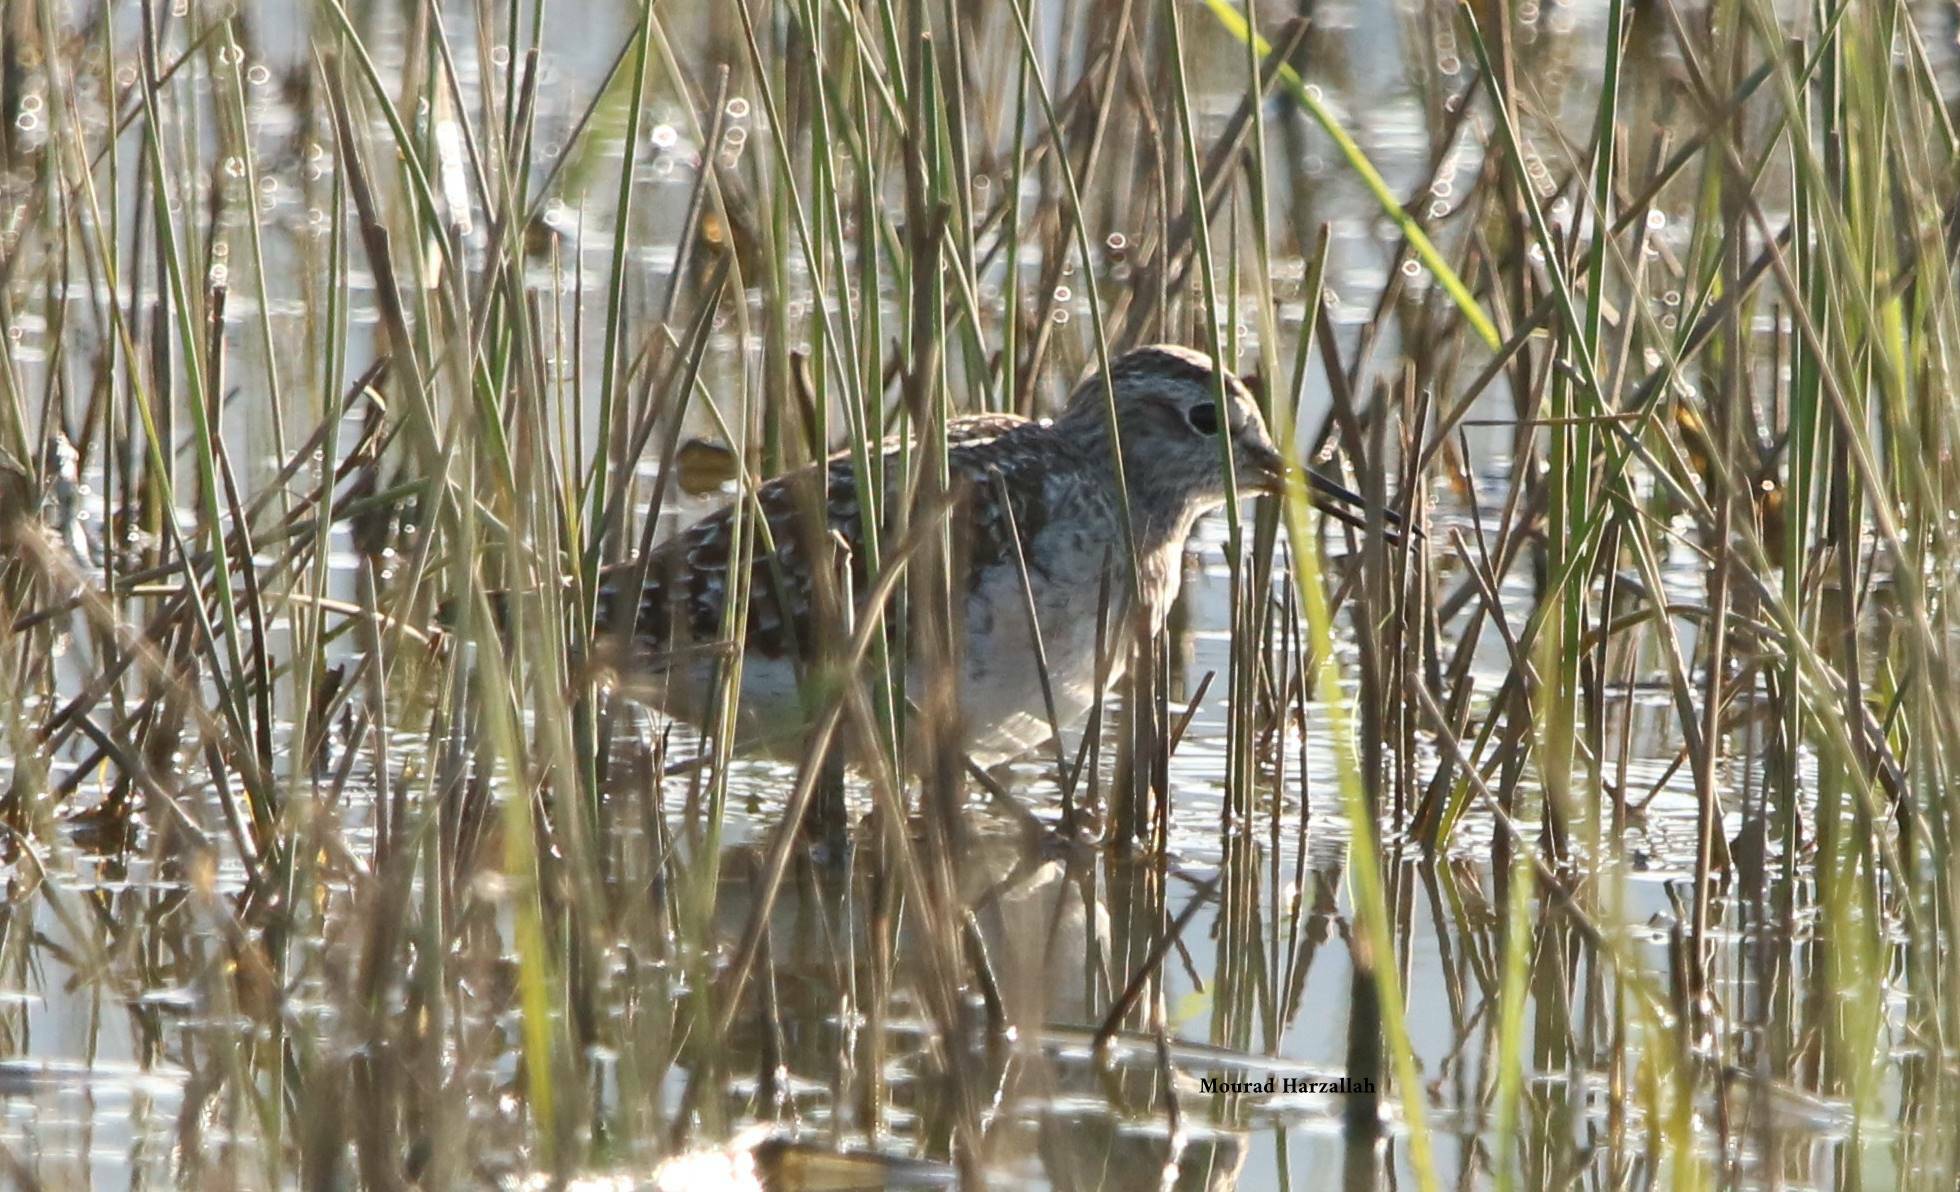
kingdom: Animalia
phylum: Chordata
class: Aves
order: Charadriiformes
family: Scolopacidae
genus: Tringa
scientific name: Tringa glareola
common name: Wood sandpiper
